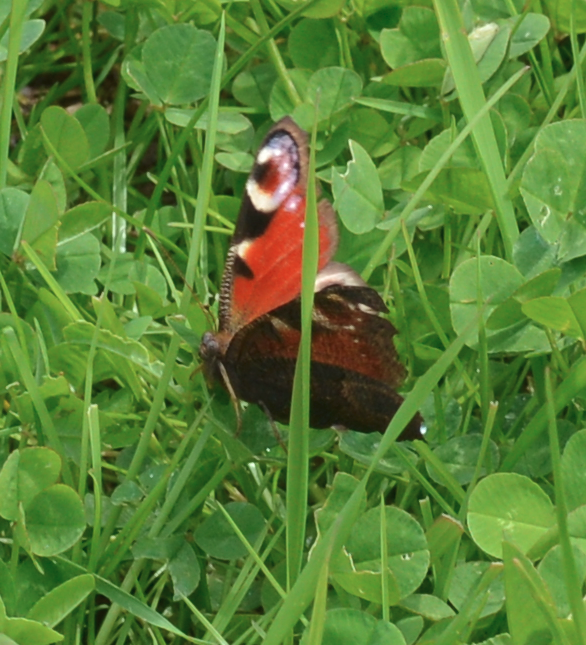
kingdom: Animalia
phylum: Arthropoda
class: Insecta
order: Lepidoptera
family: Nymphalidae
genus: Aglais
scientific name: Aglais io
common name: Peacock
